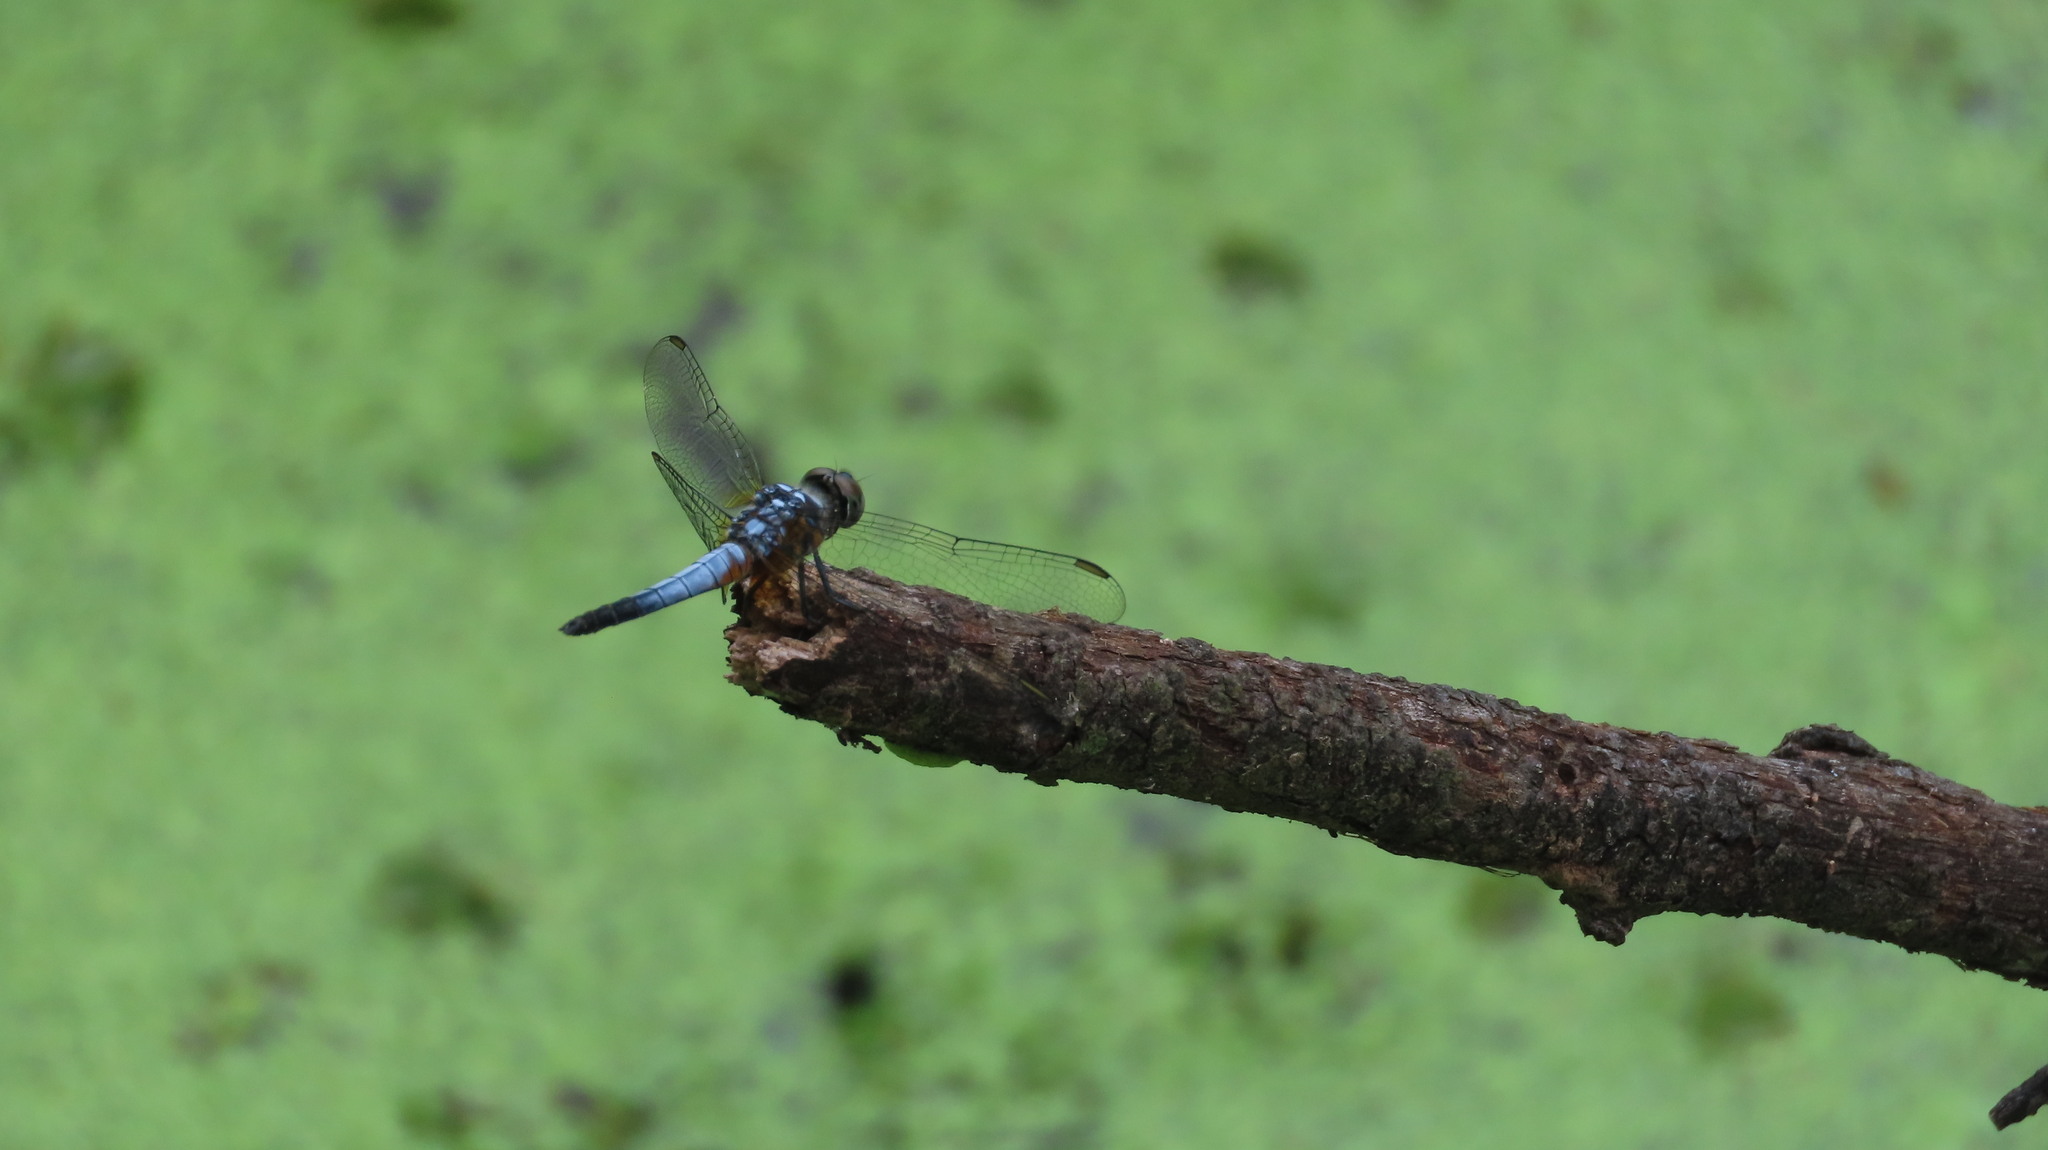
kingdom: Animalia
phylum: Arthropoda
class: Insecta
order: Odonata
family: Libellulidae
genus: Brachydiplax
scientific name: Brachydiplax chalybea
